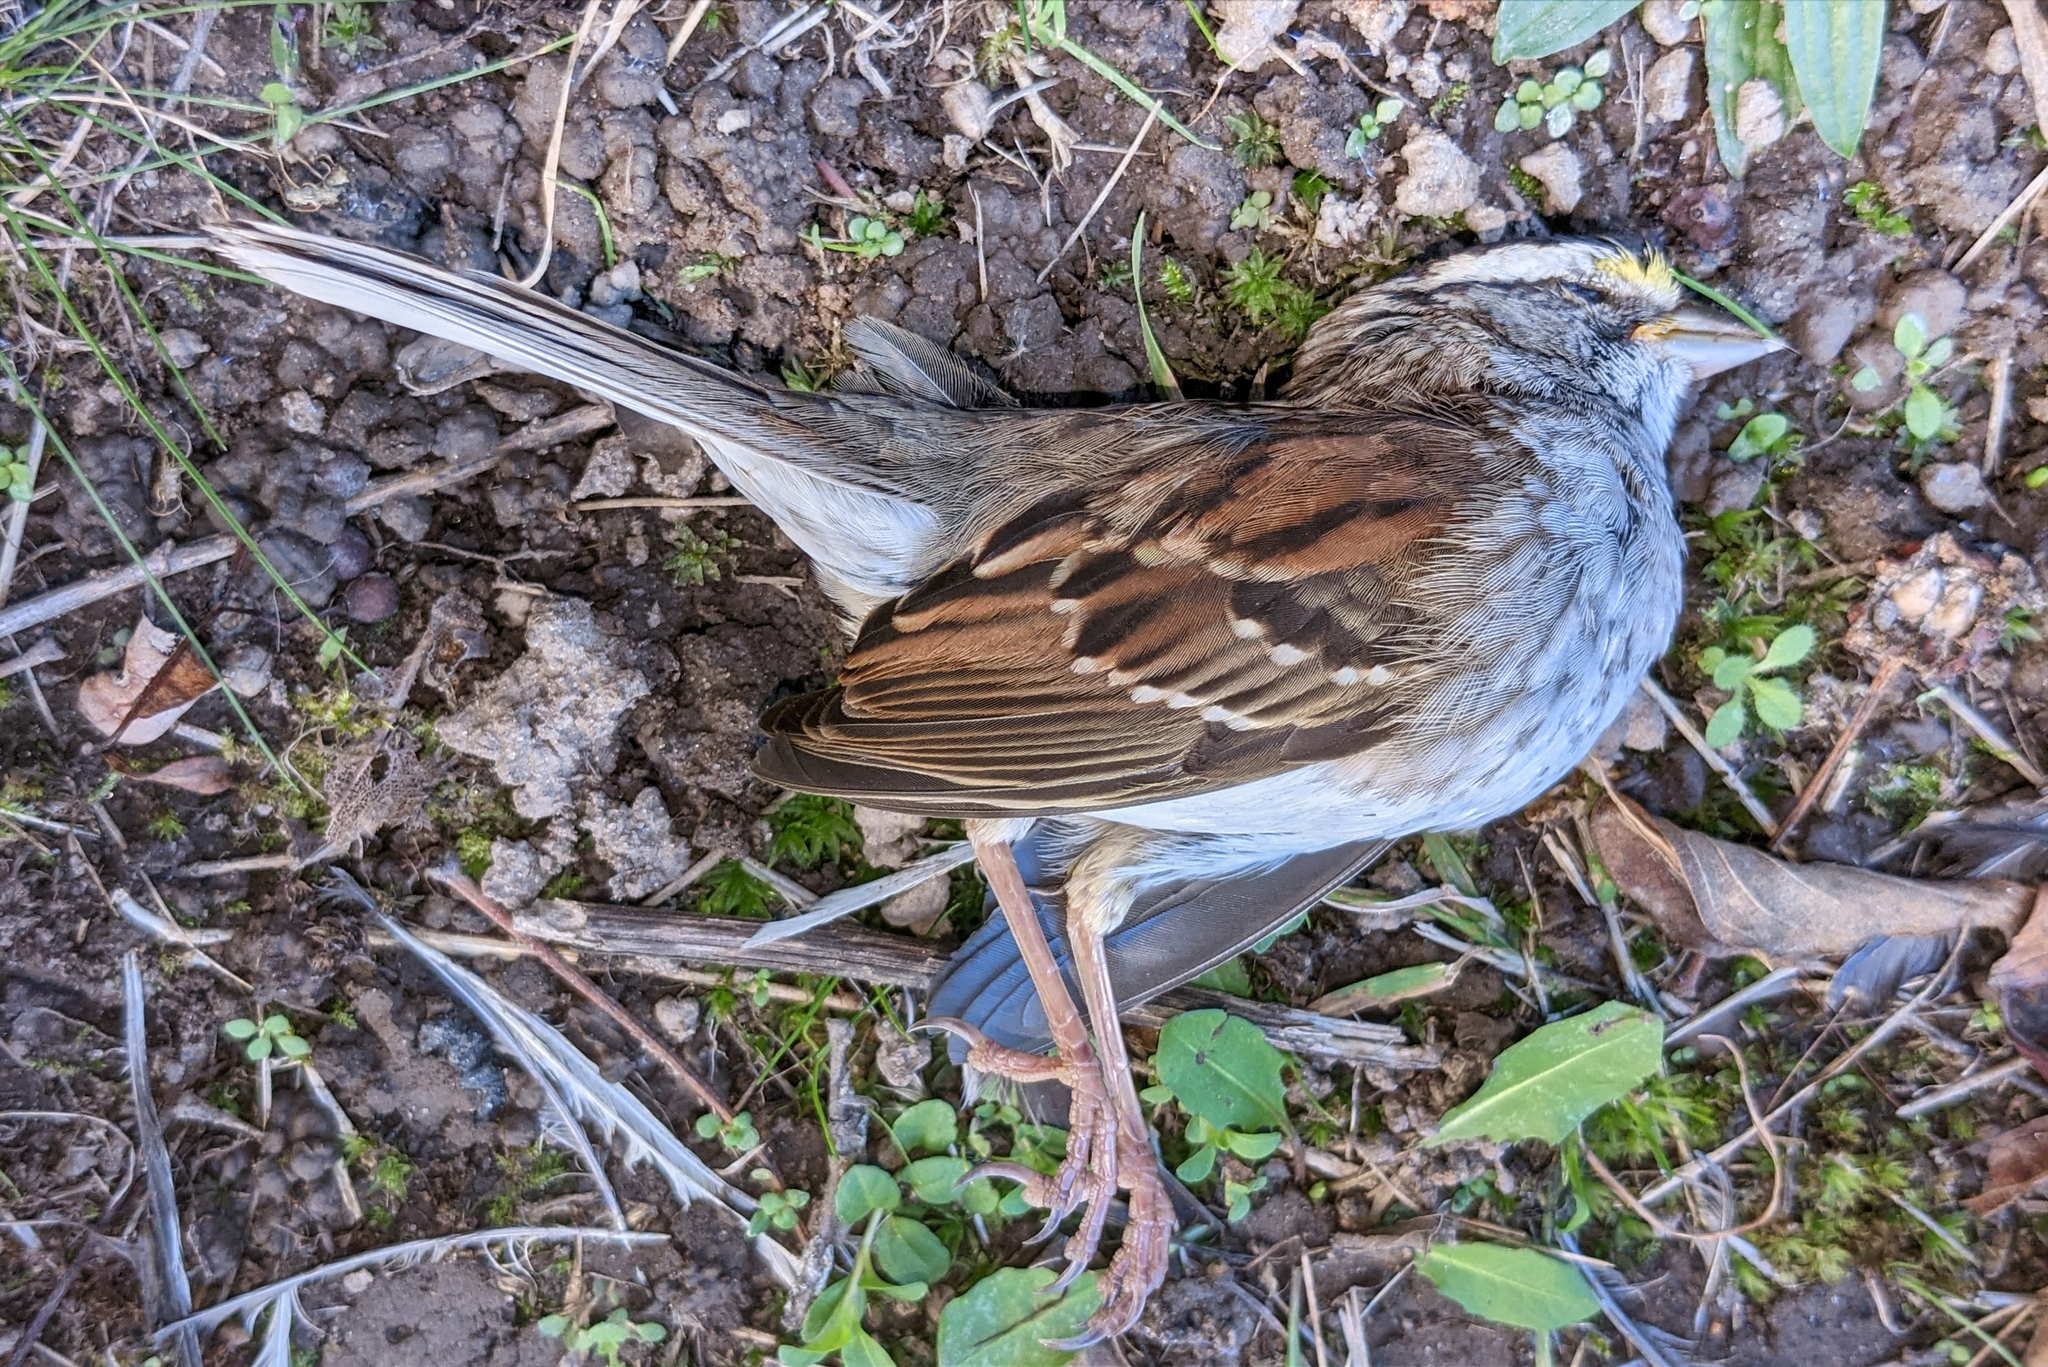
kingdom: Animalia
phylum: Chordata
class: Aves
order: Passeriformes
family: Passerellidae
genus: Zonotrichia
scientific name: Zonotrichia albicollis
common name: White-throated sparrow
